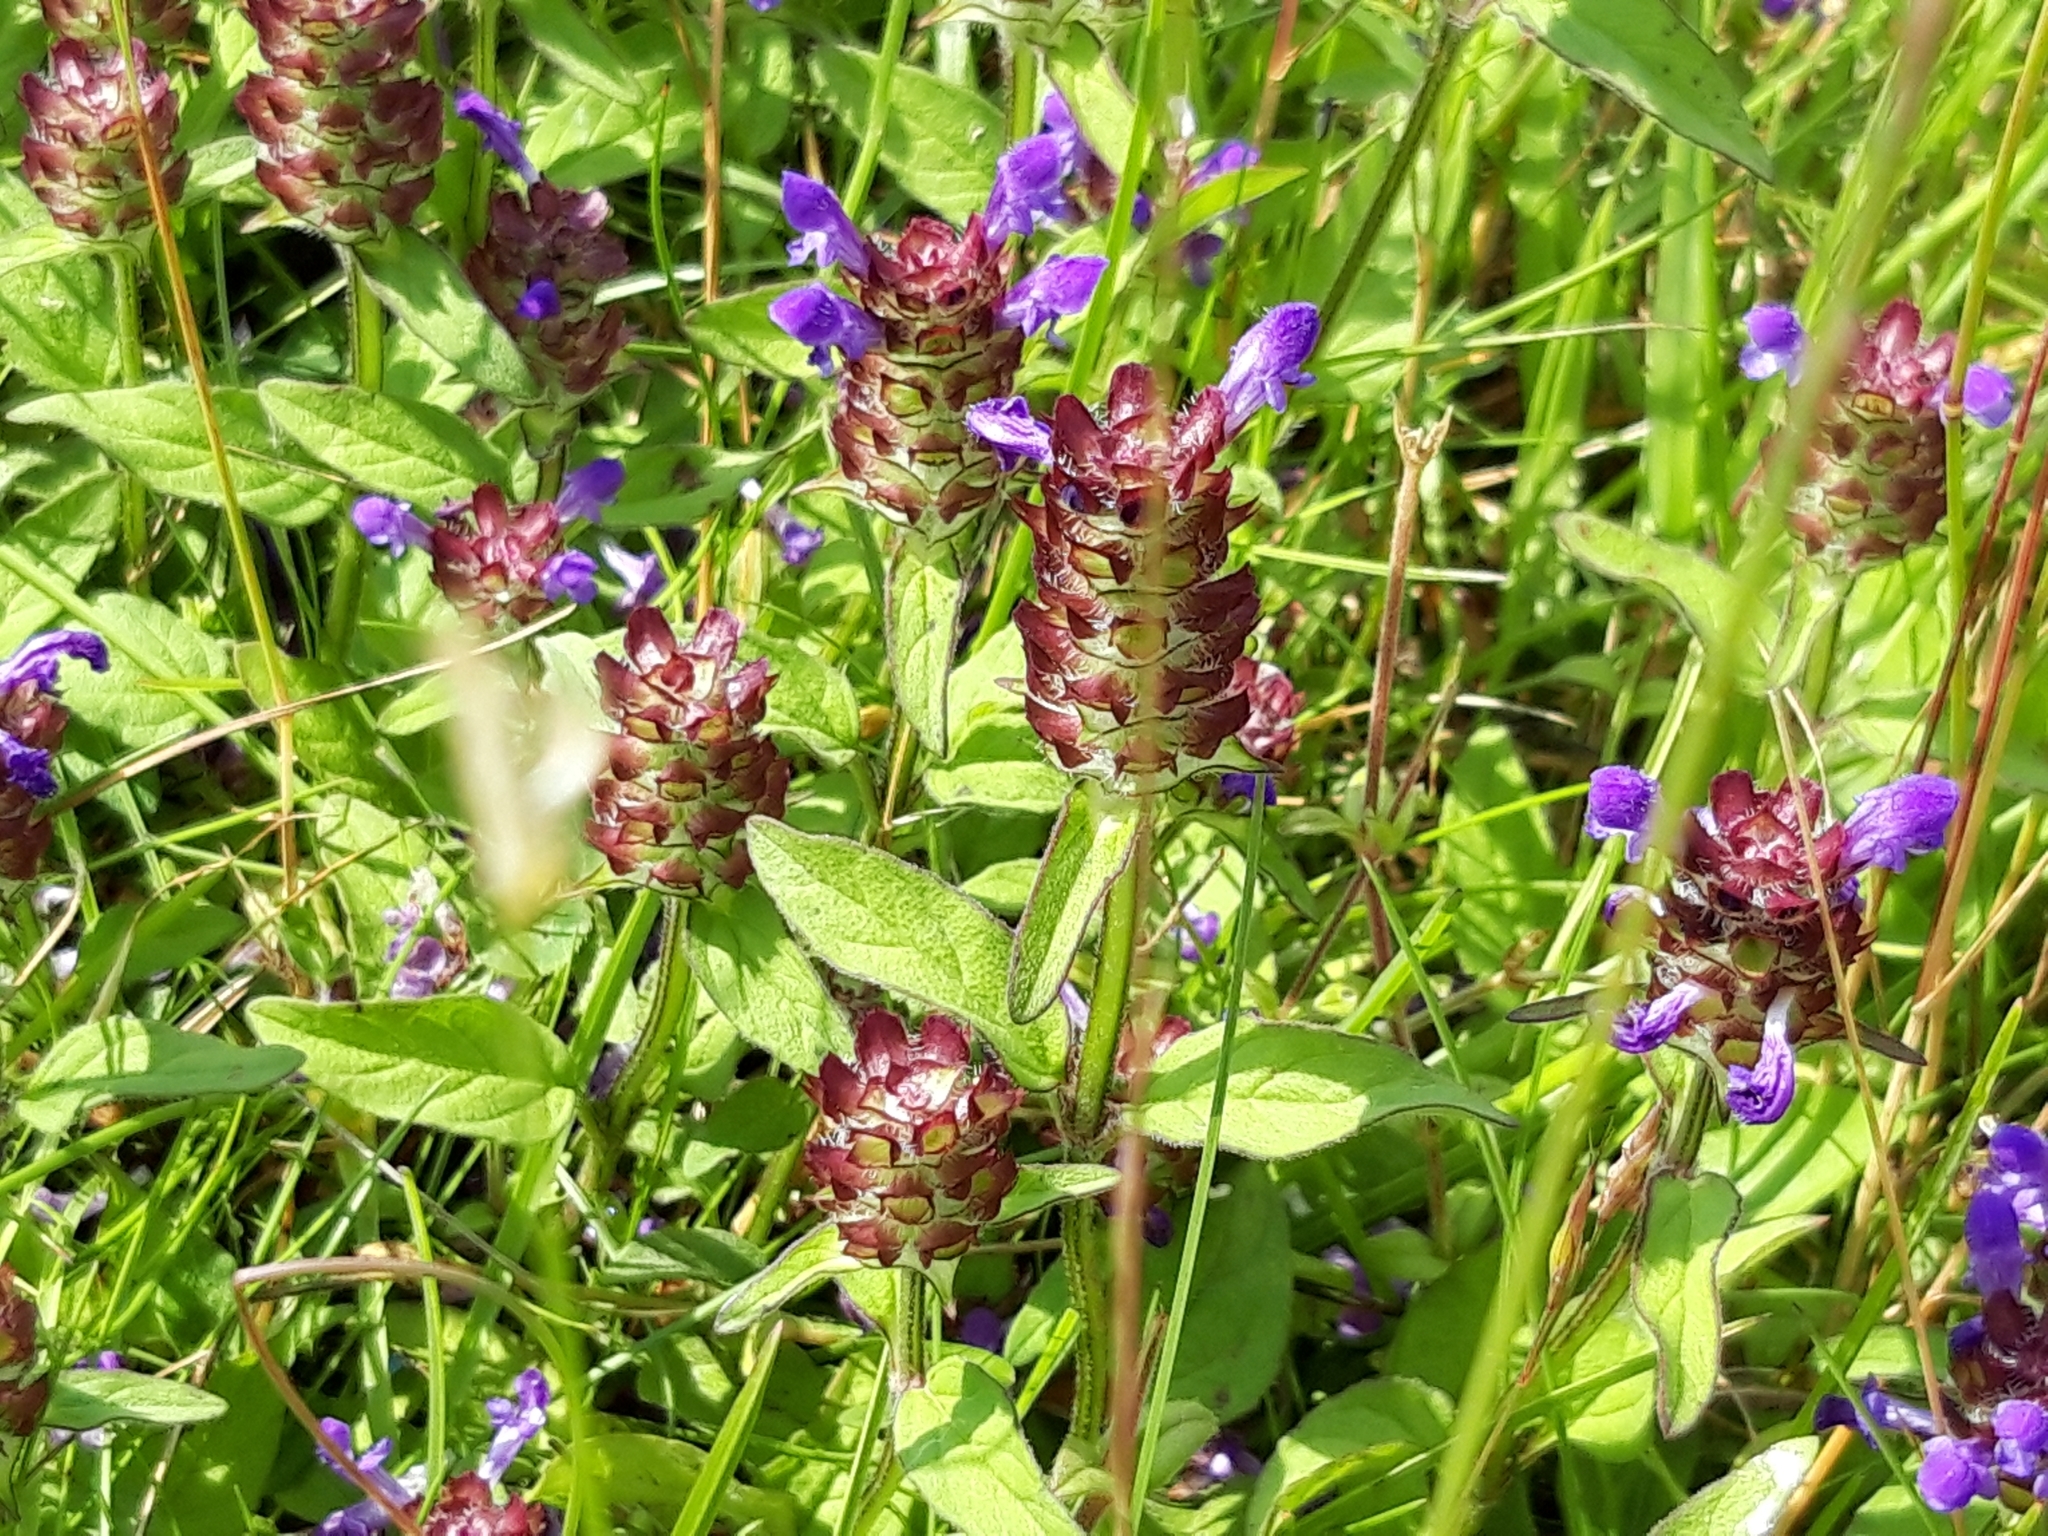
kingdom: Plantae
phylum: Tracheophyta
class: Magnoliopsida
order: Lamiales
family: Lamiaceae
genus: Prunella
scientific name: Prunella vulgaris
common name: Heal-all
